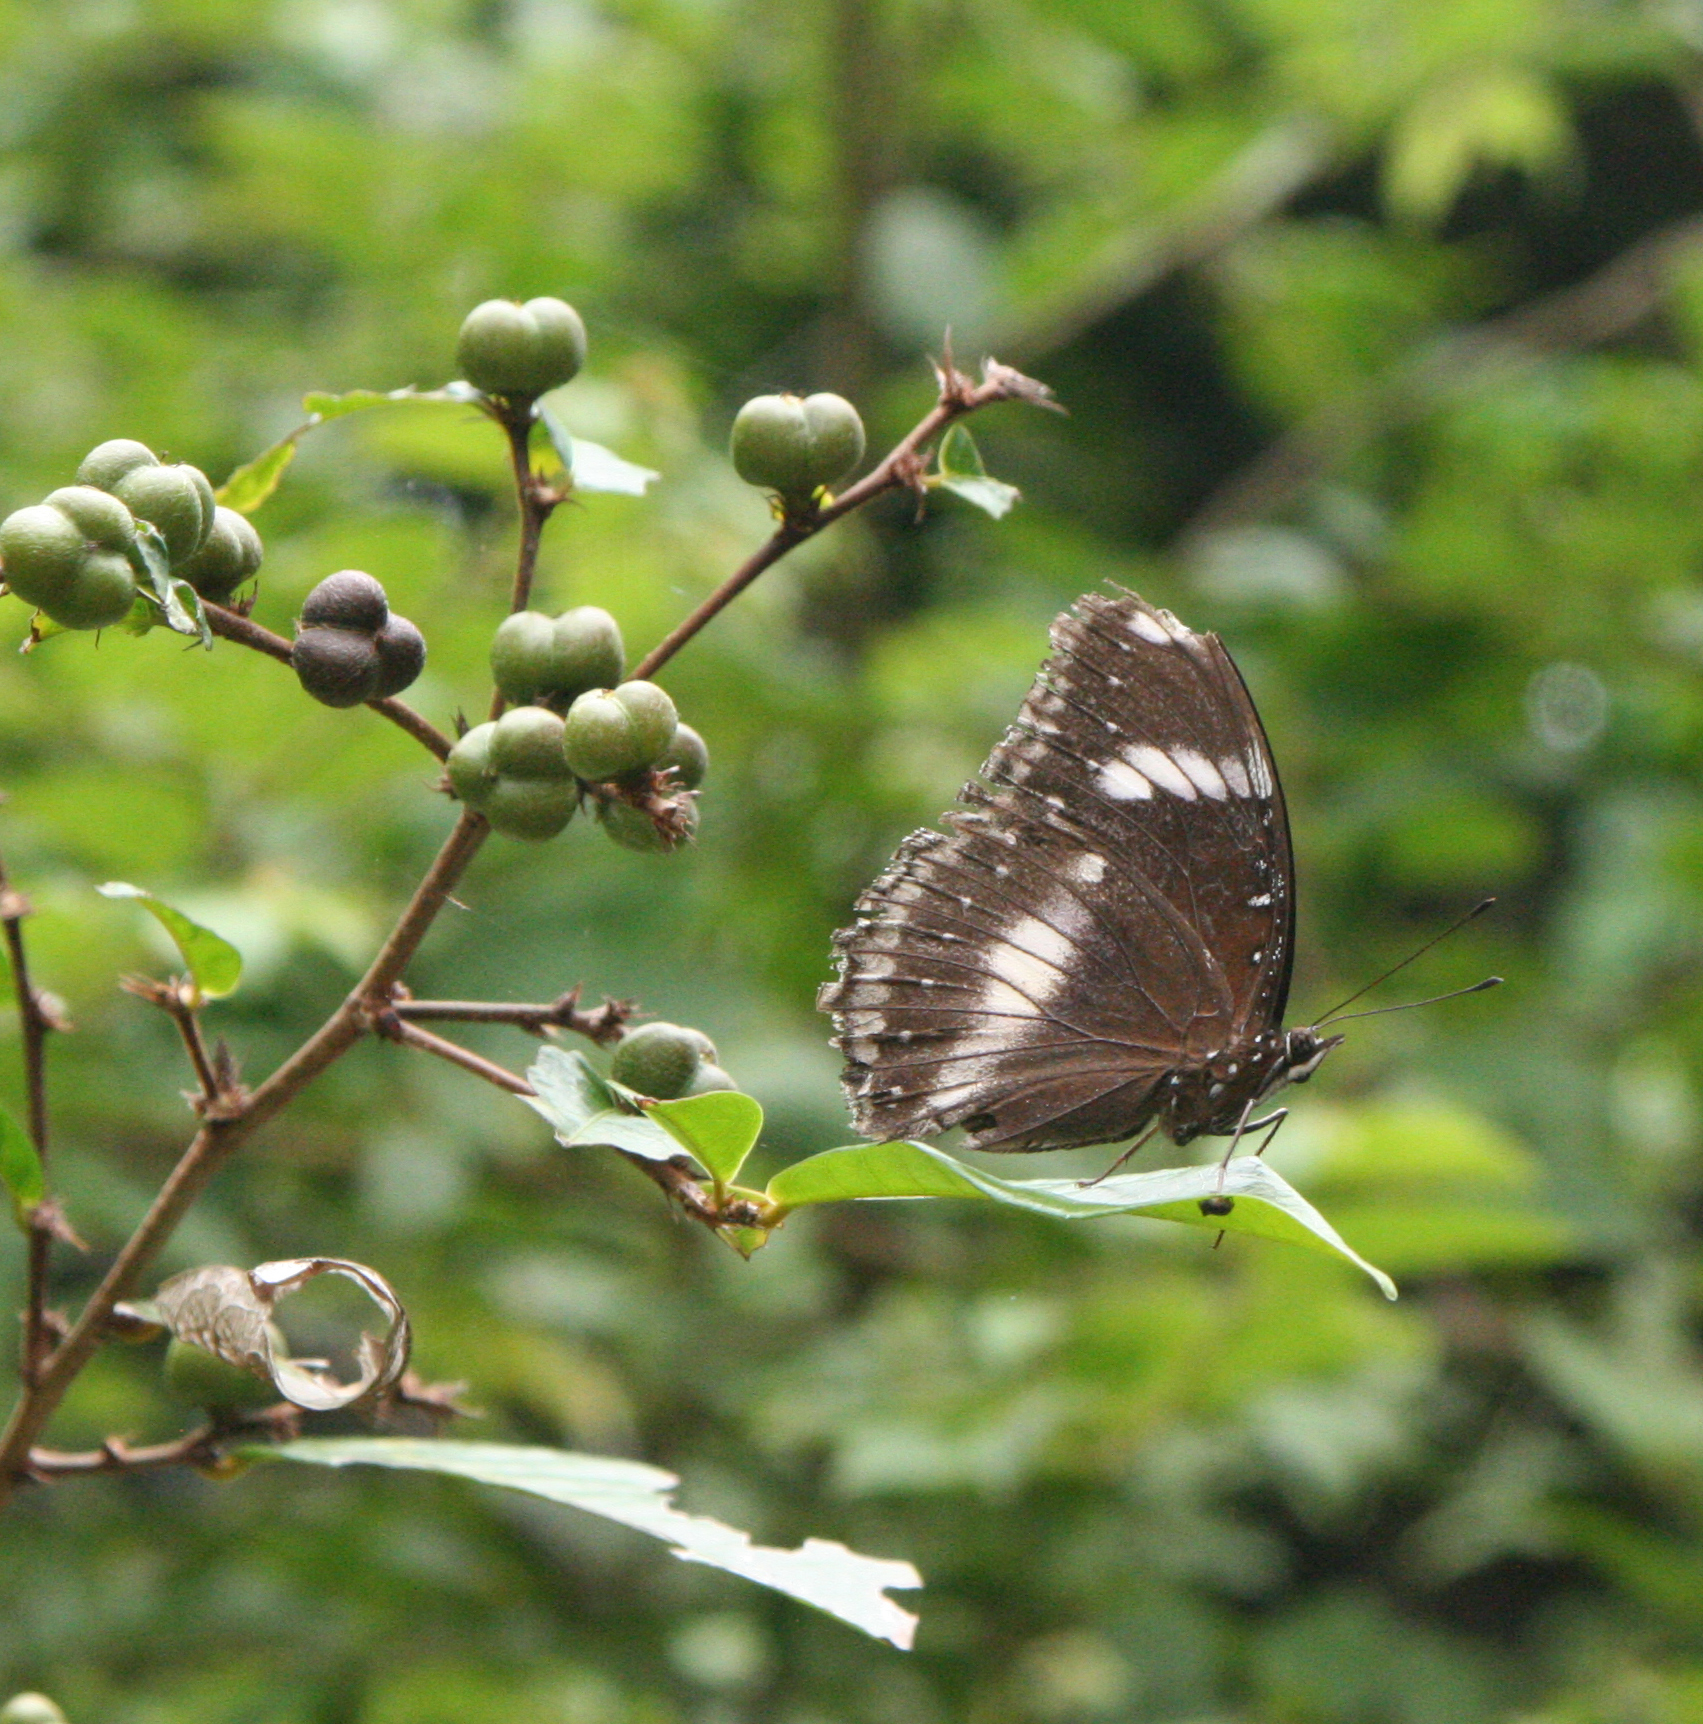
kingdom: Animalia
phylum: Arthropoda
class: Insecta
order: Lepidoptera
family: Nymphalidae
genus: Hypolimnas
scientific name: Hypolimnas bolina
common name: Great eggfly
